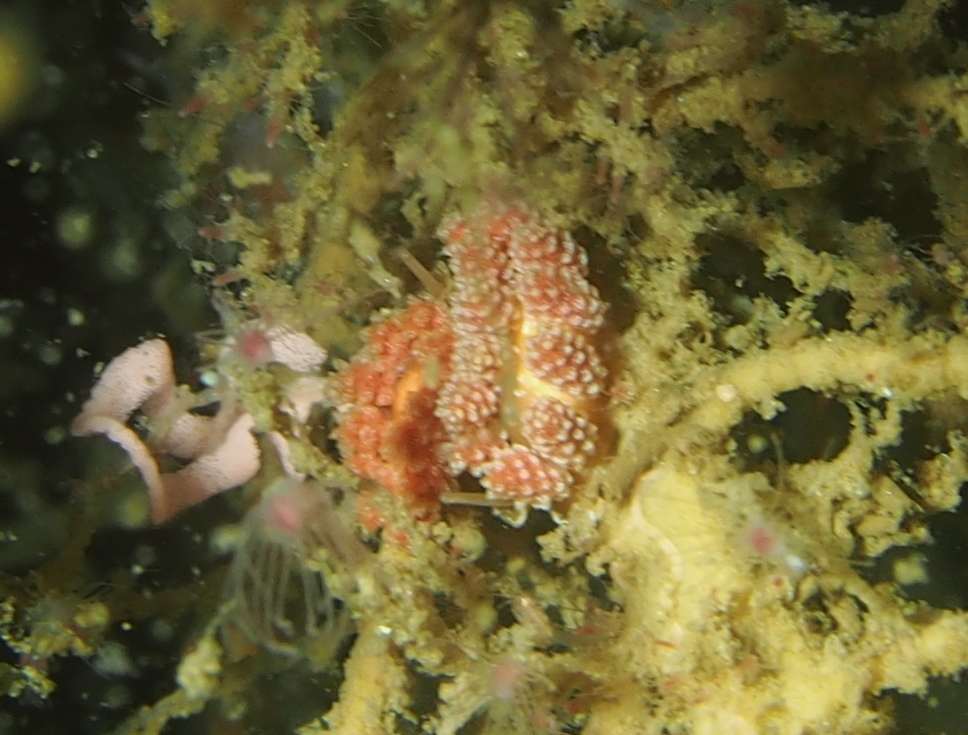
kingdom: Animalia
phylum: Mollusca
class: Gastropoda
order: Nudibranchia
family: Dotidae
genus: Doto
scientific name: Doto fragilis
